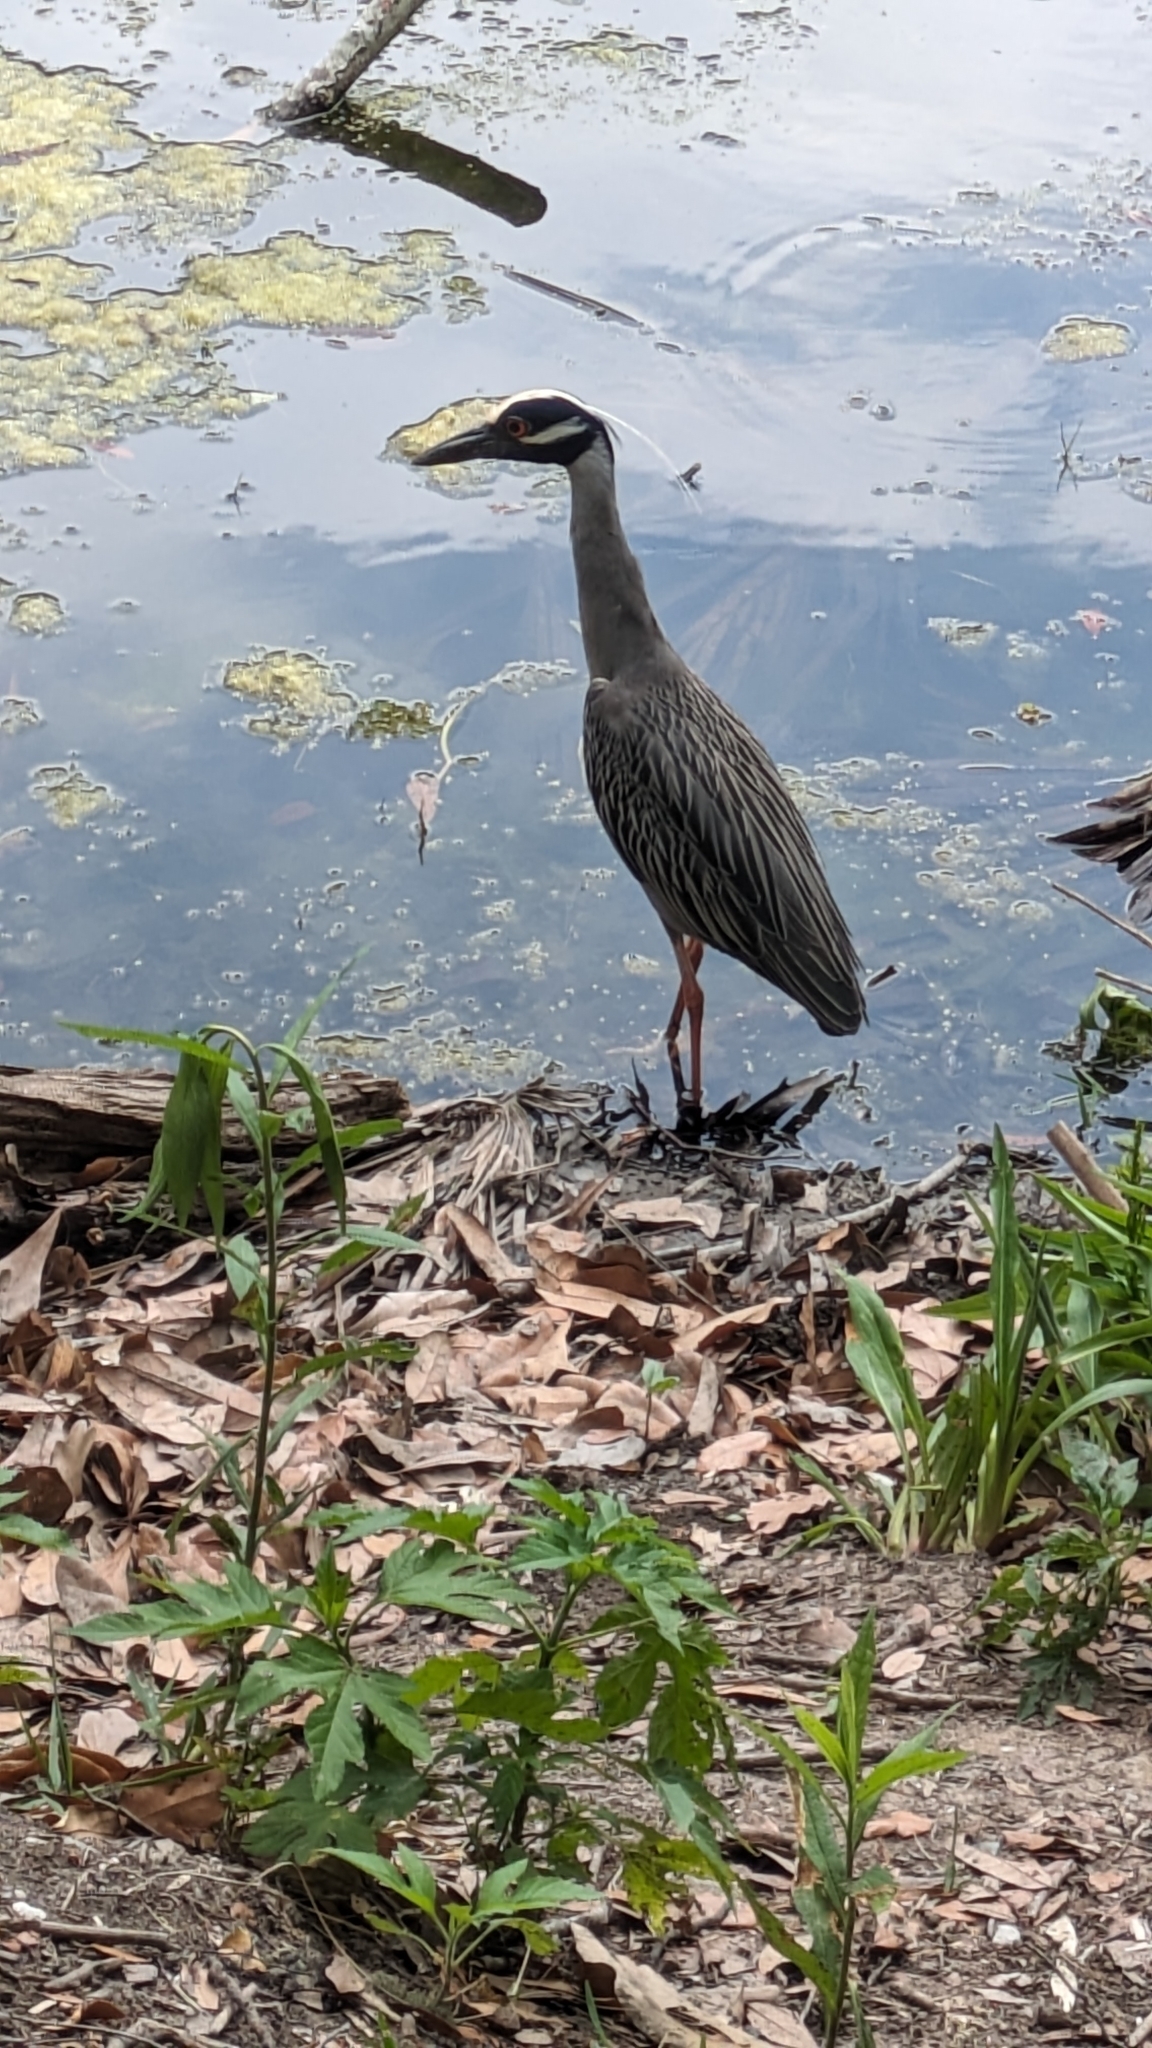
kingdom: Animalia
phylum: Chordata
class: Aves
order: Pelecaniformes
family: Ardeidae
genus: Nyctanassa
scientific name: Nyctanassa violacea
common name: Yellow-crowned night heron
